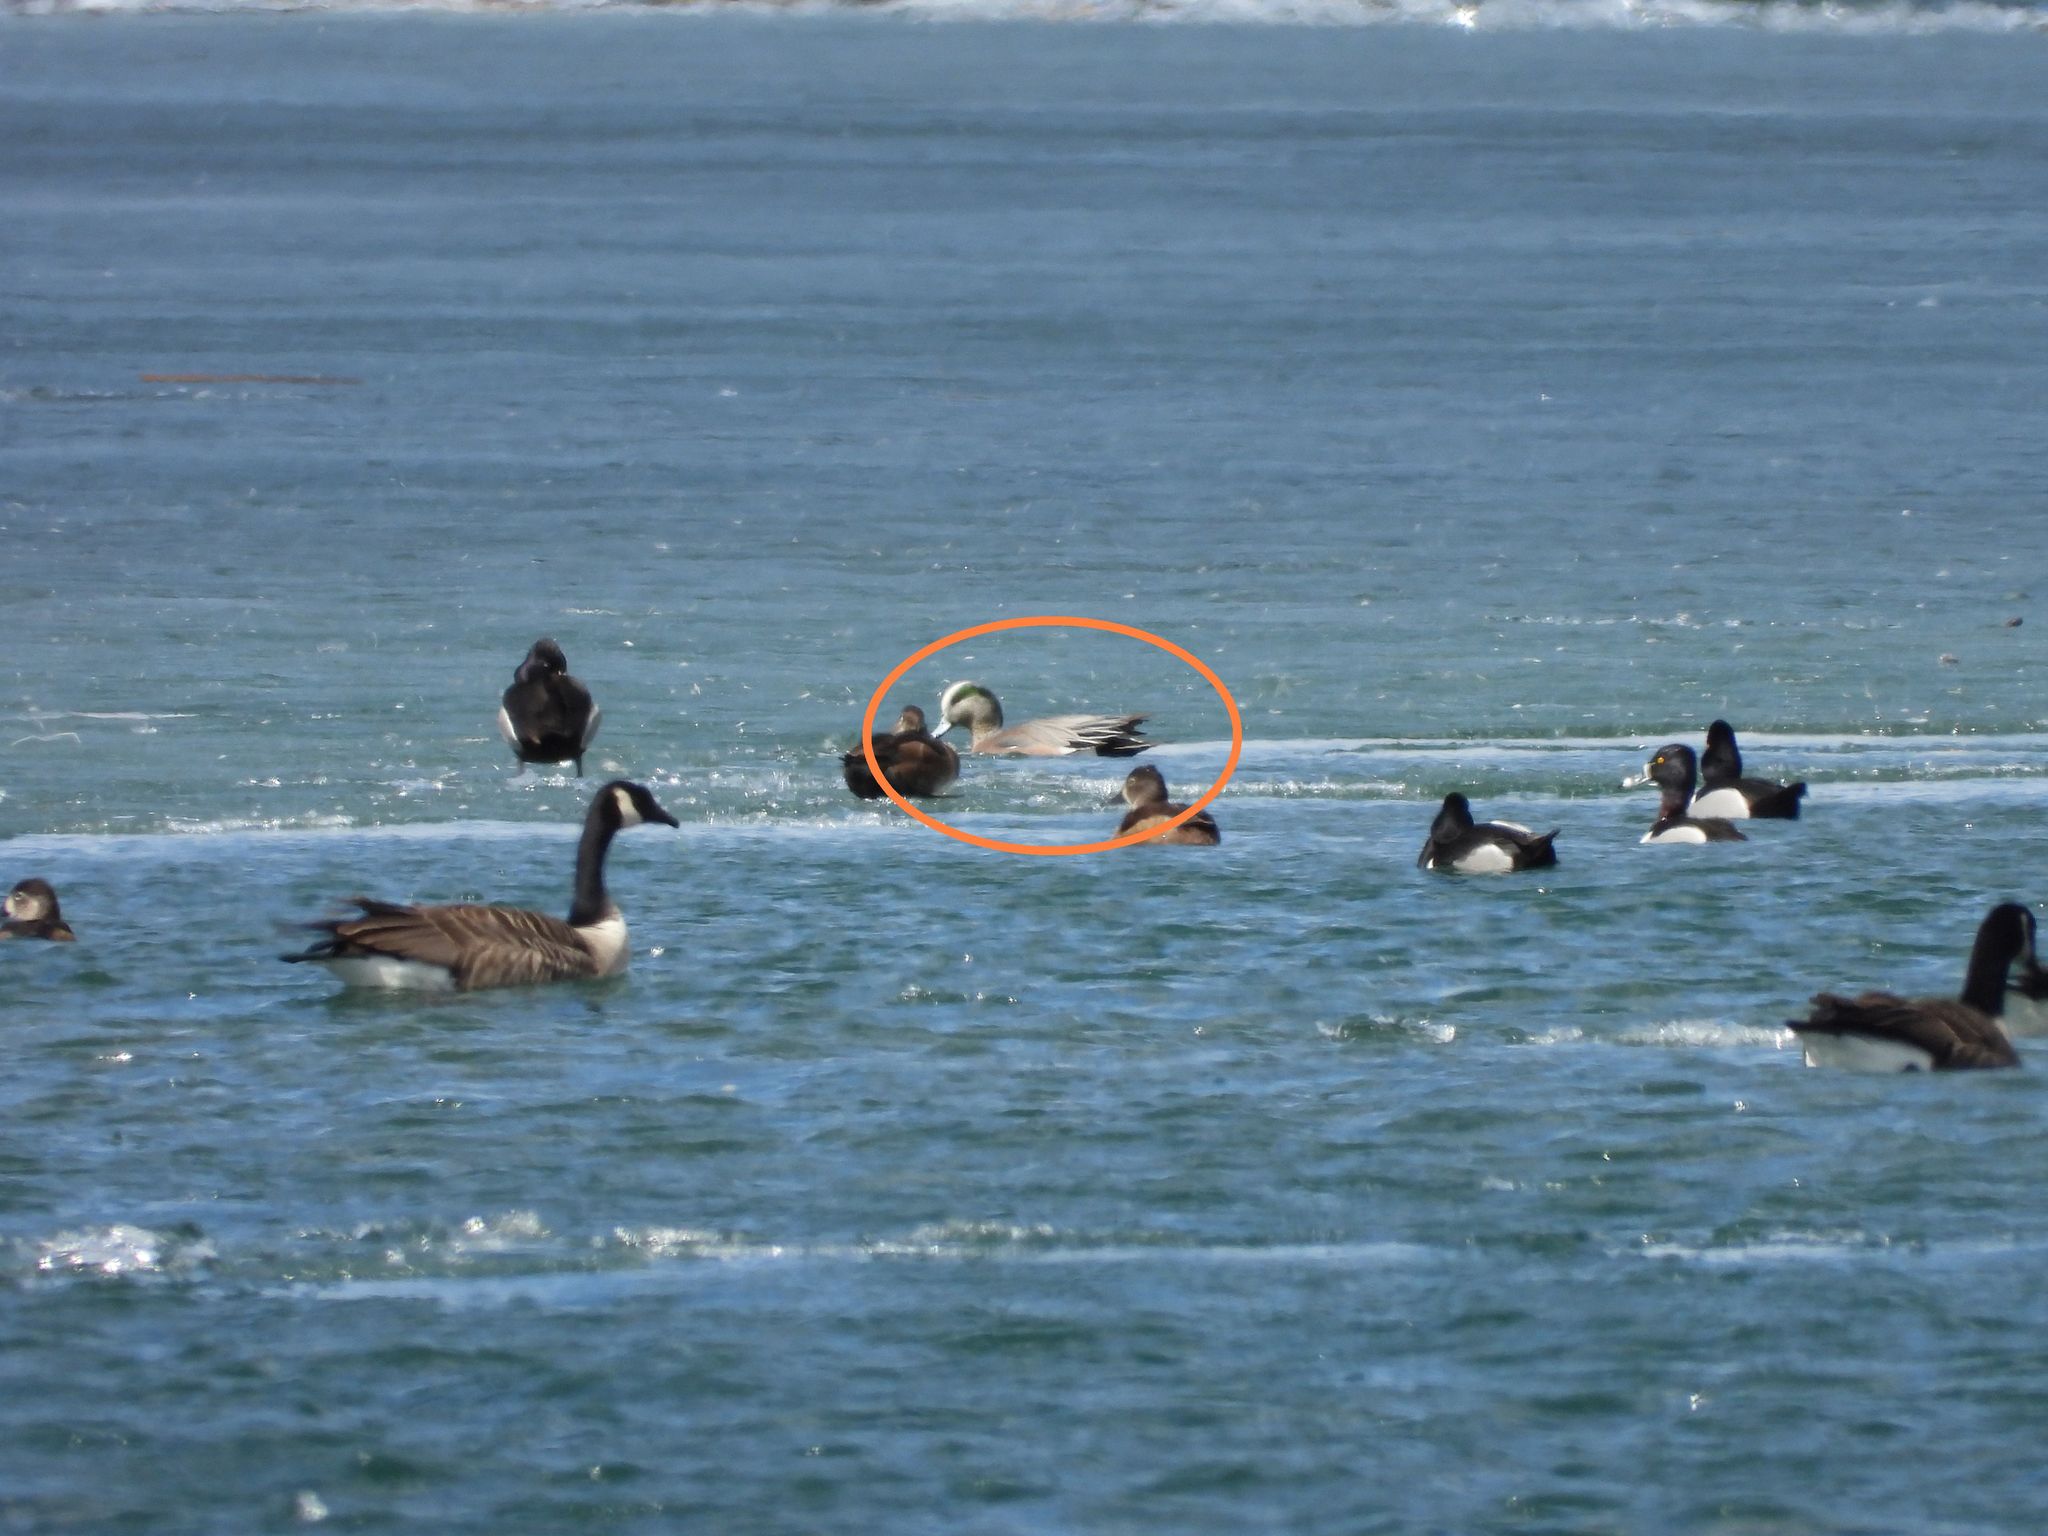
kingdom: Animalia
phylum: Chordata
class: Aves
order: Anseriformes
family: Anatidae
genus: Mareca
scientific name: Mareca americana
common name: American wigeon
